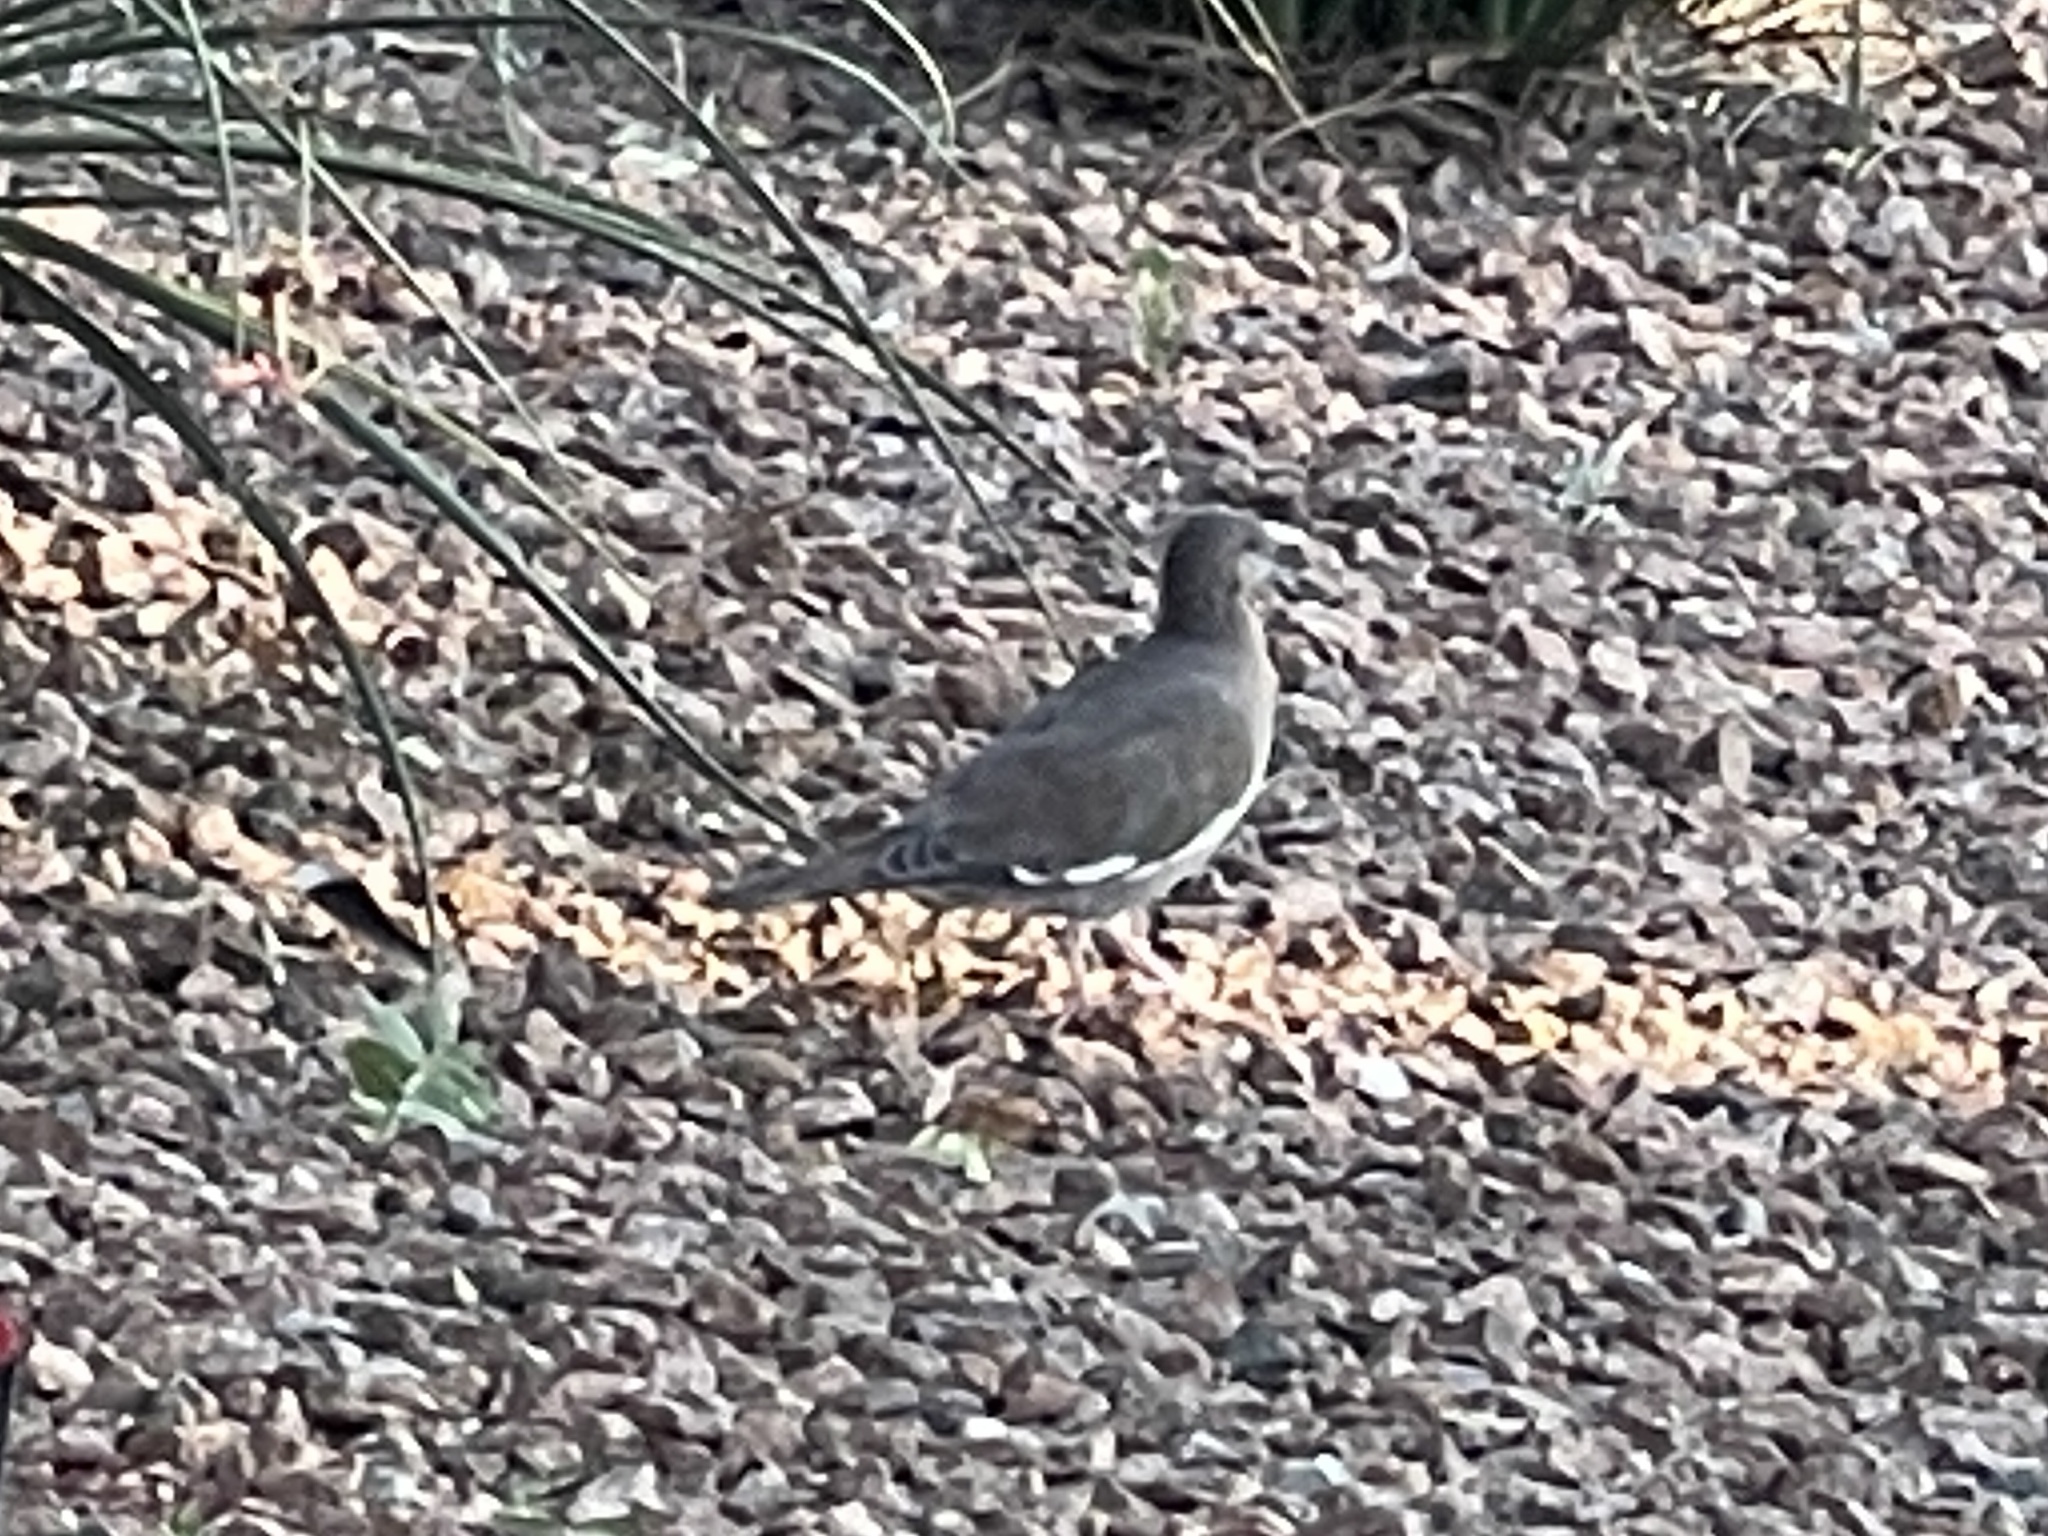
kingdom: Animalia
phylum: Chordata
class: Aves
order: Columbiformes
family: Columbidae
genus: Zenaida
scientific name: Zenaida asiatica
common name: White-winged dove
